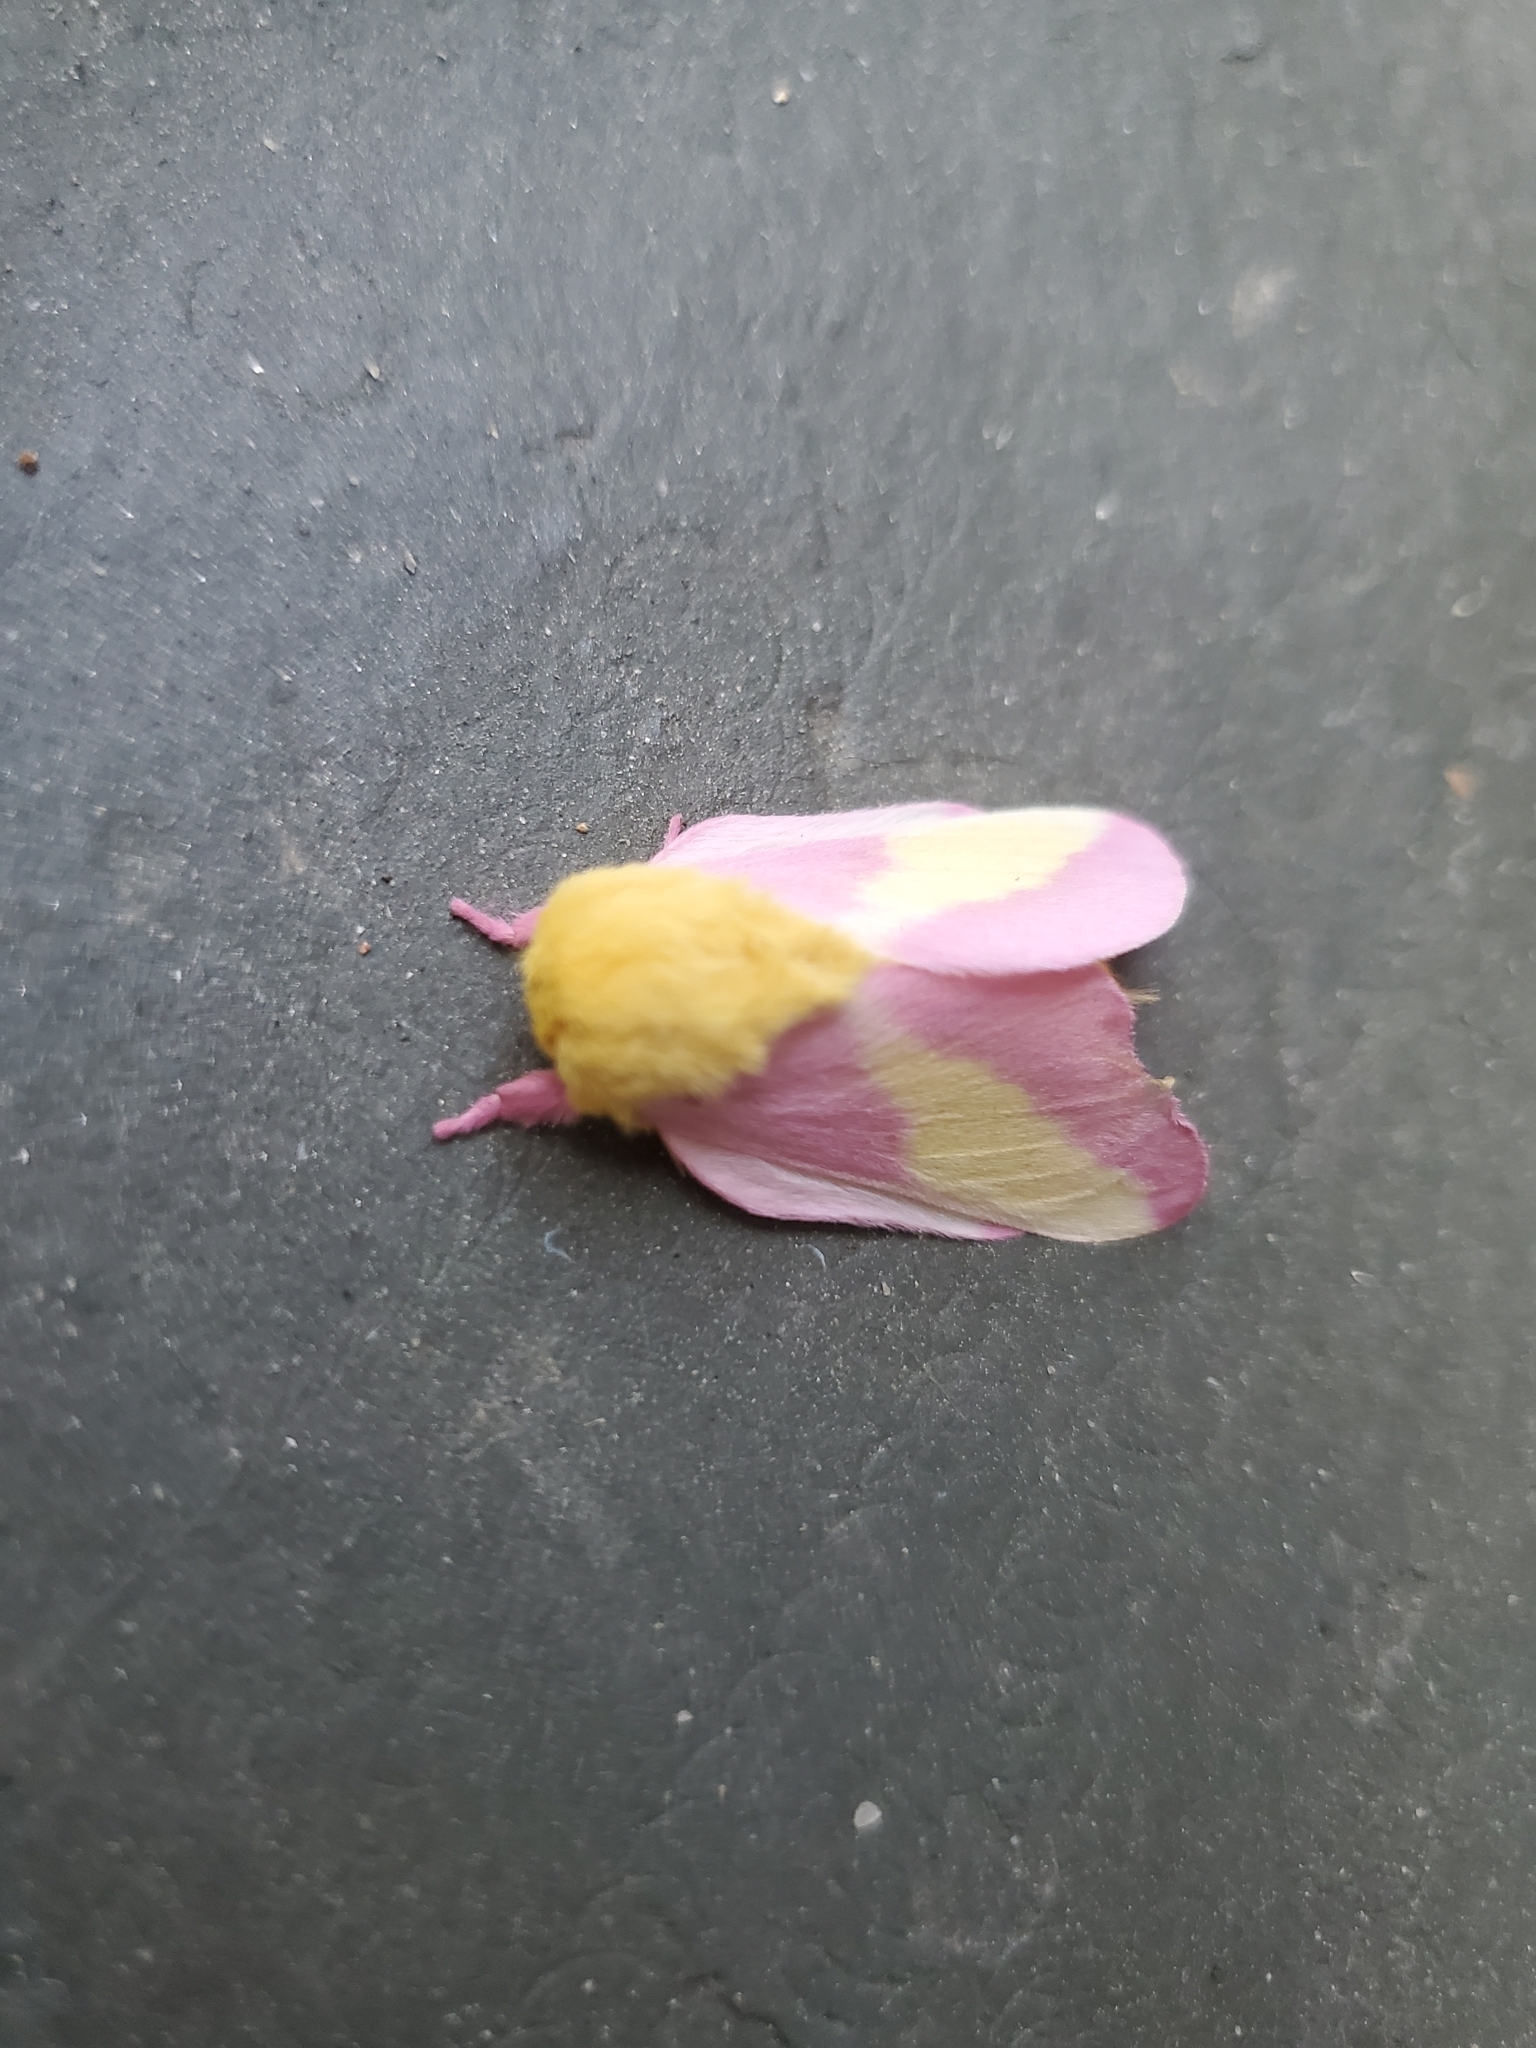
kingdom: Animalia
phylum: Arthropoda
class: Insecta
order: Lepidoptera
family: Saturniidae
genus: Dryocampa
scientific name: Dryocampa rubicunda
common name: Rosy maple moth
